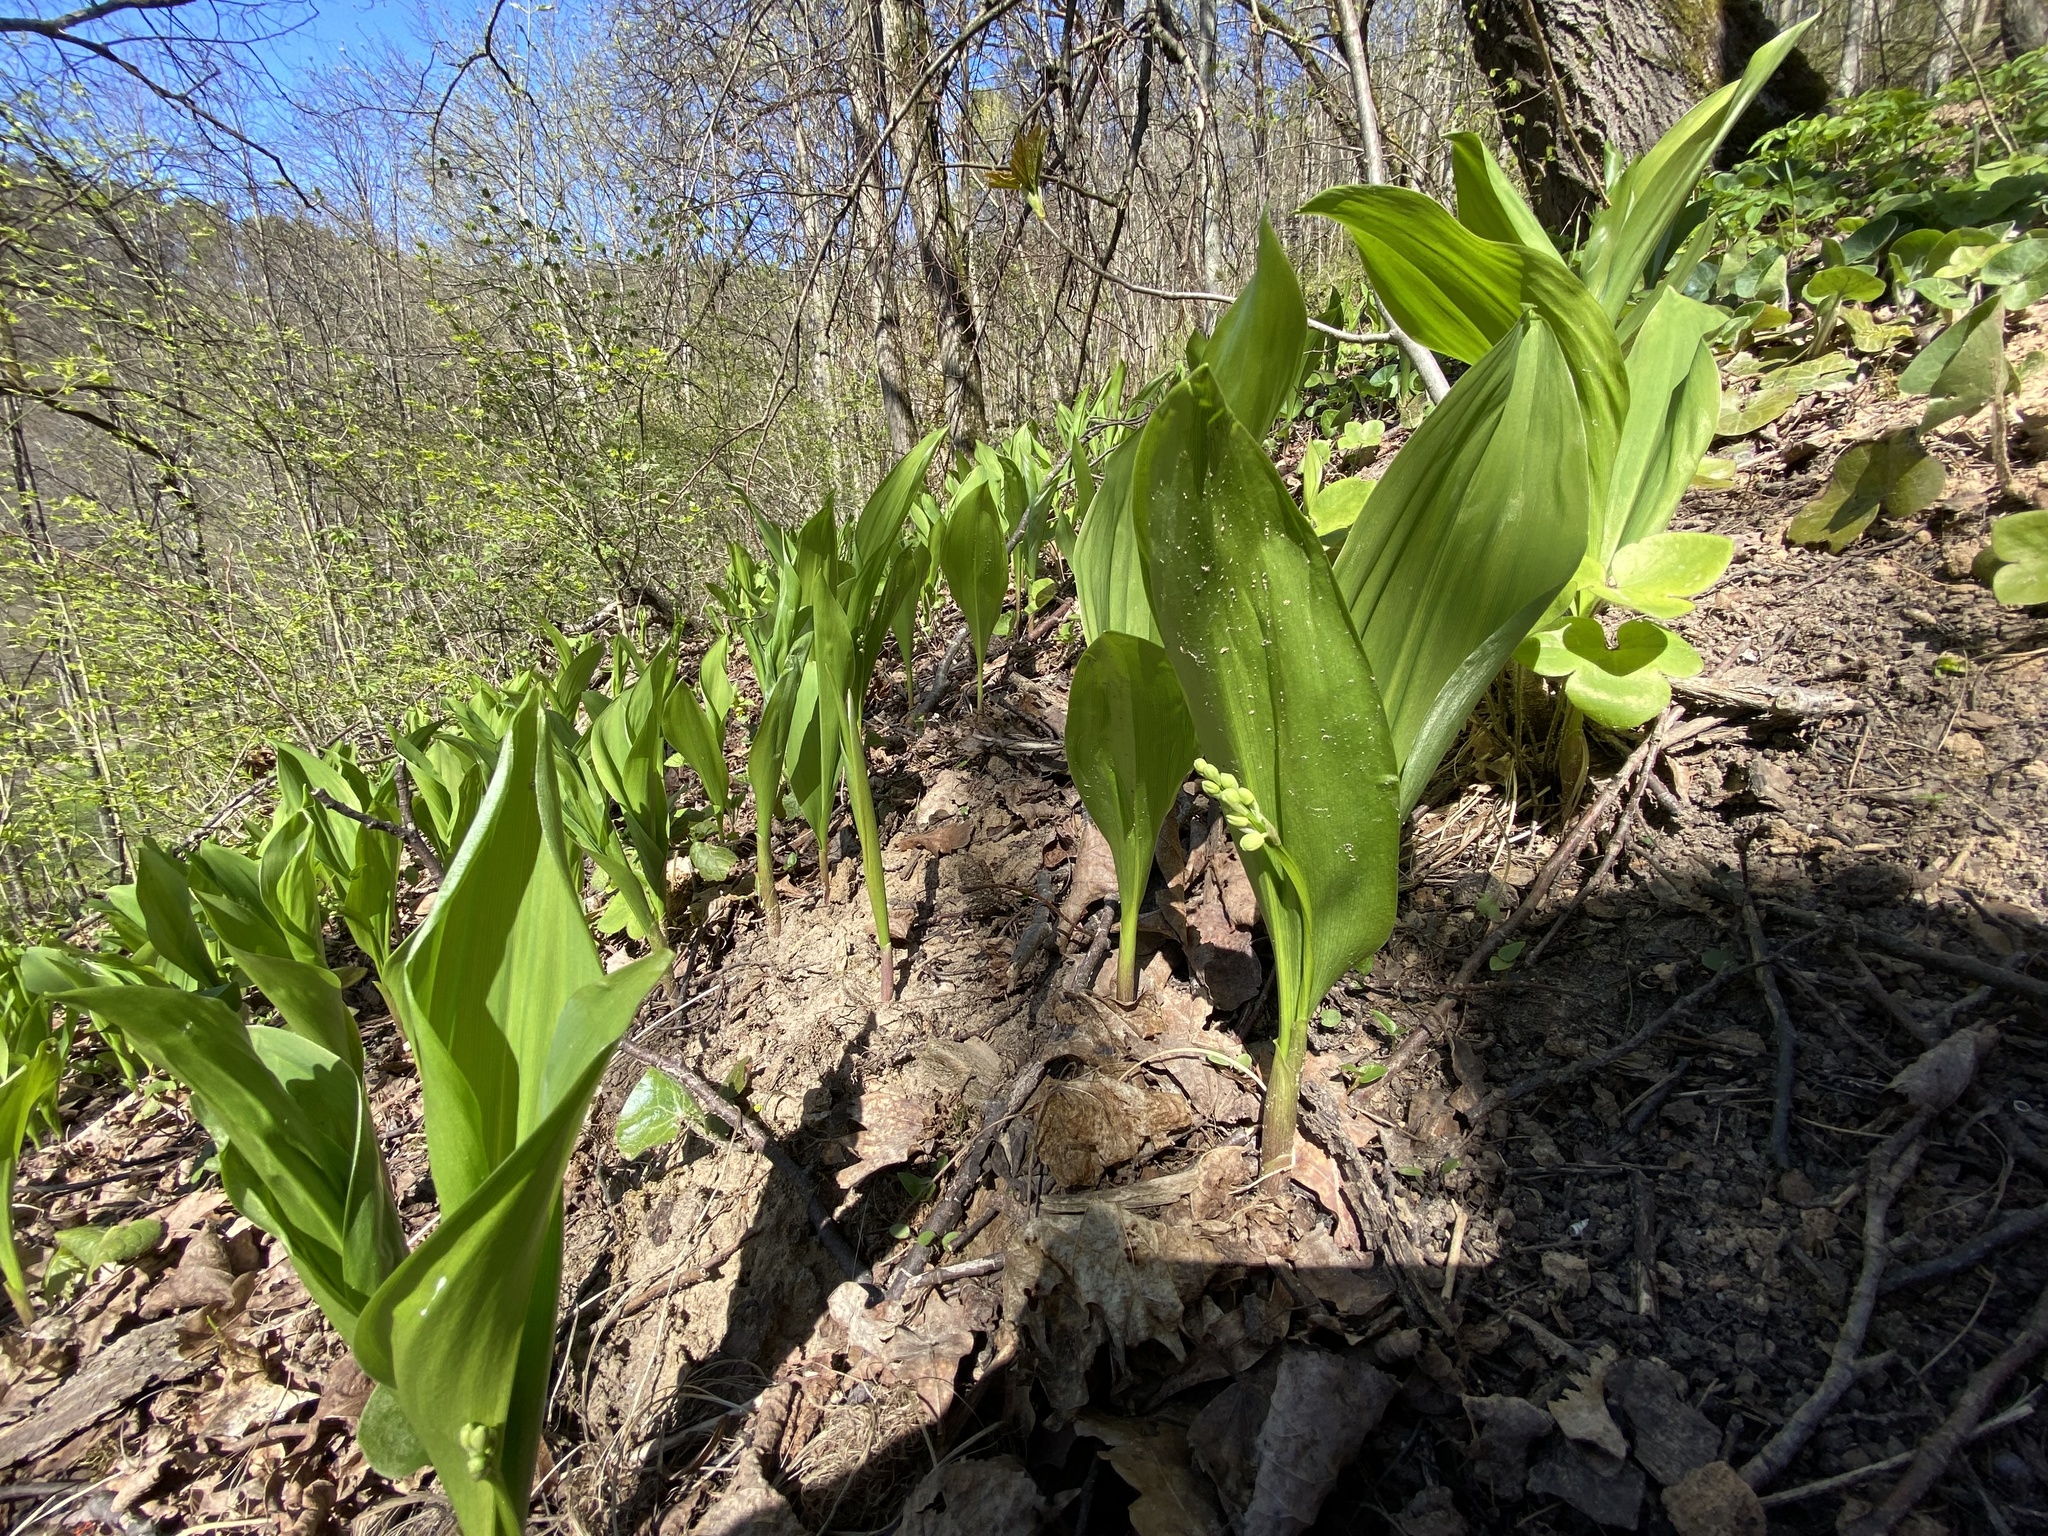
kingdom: Plantae
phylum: Tracheophyta
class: Liliopsida
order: Asparagales
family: Asparagaceae
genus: Convallaria
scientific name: Convallaria majalis
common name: Lily-of-the-valley
